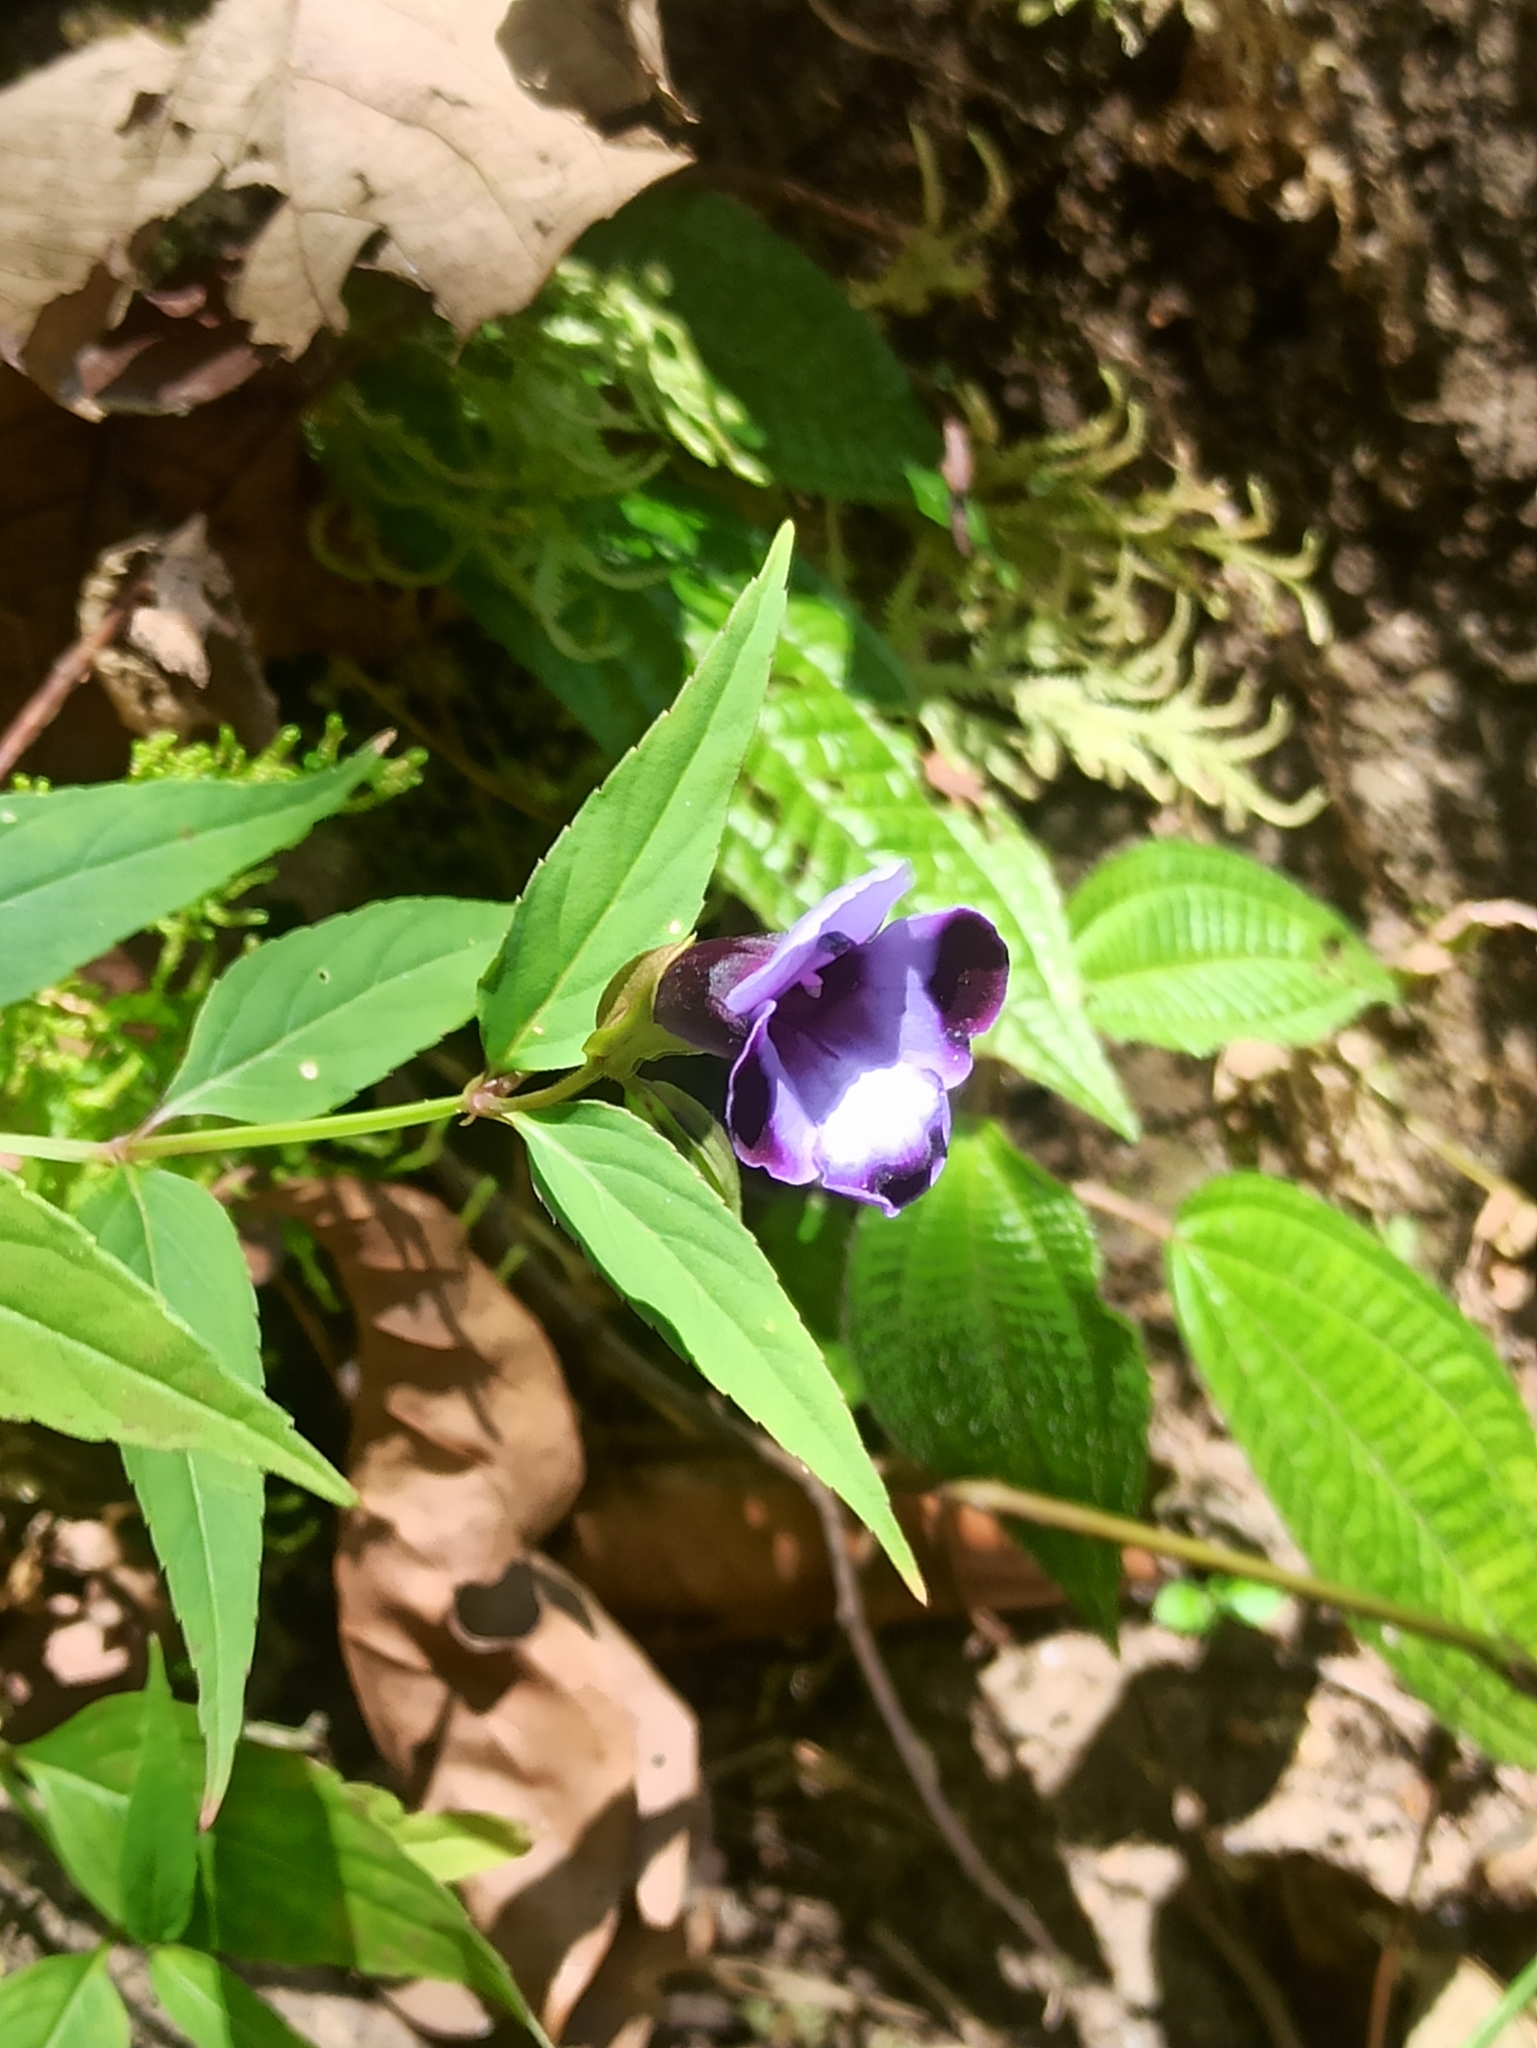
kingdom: Plantae
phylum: Tracheophyta
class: Magnoliopsida
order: Lamiales
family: Linderniaceae
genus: Torenia
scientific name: Torenia travancorica
